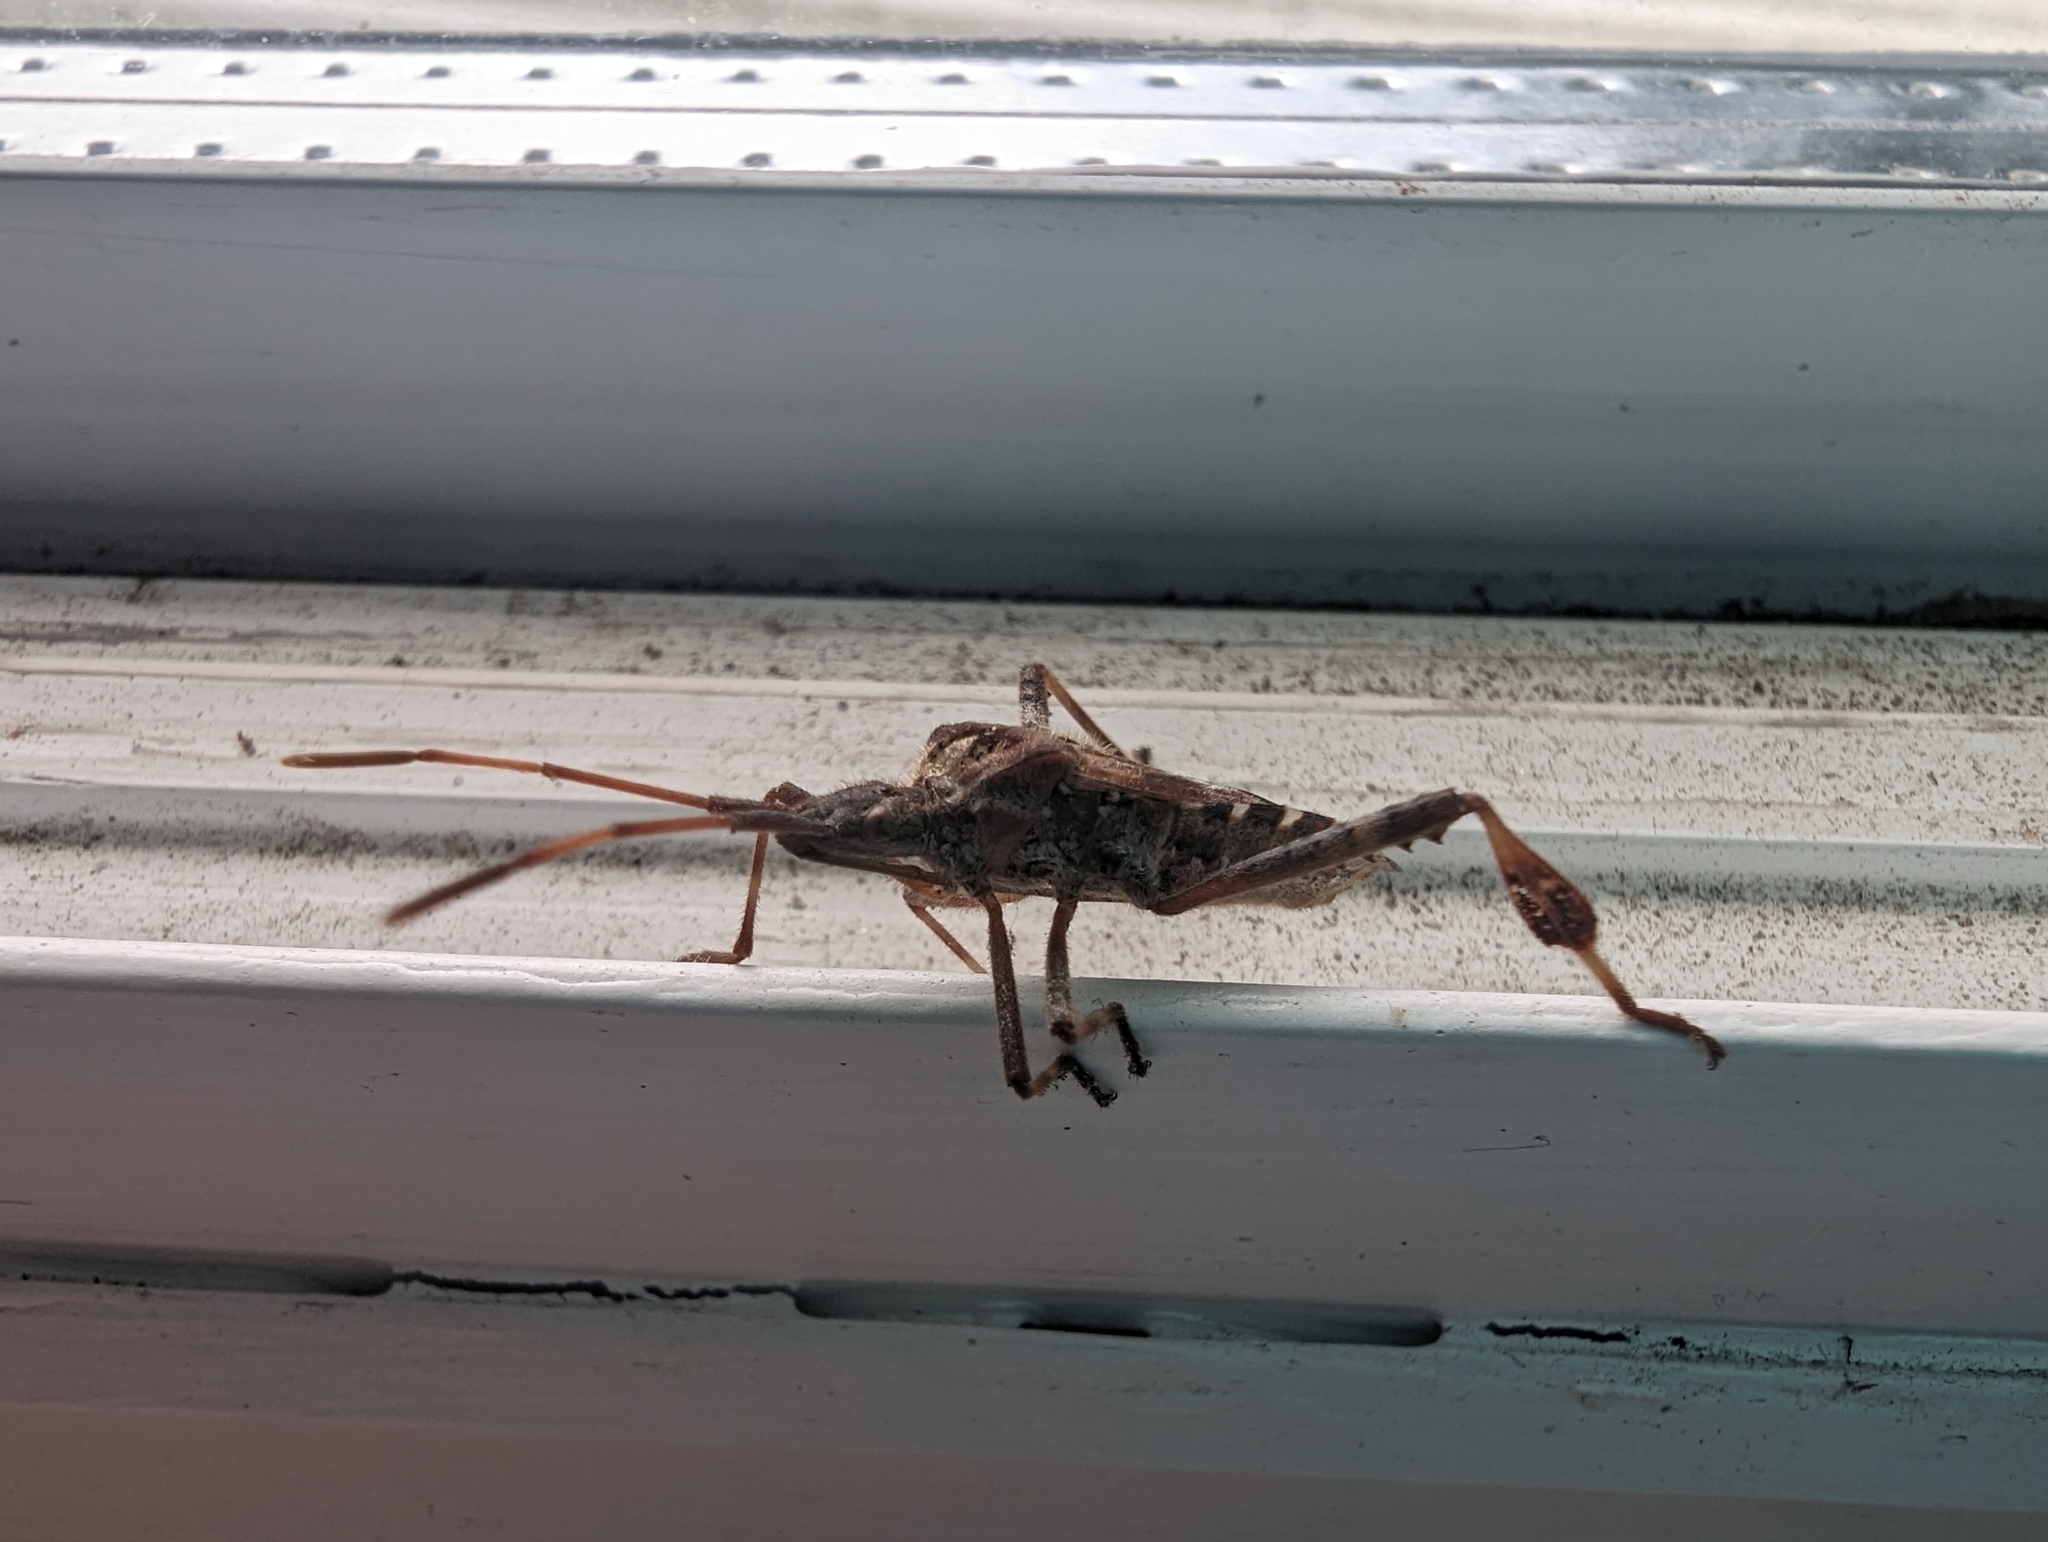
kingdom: Animalia
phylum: Arthropoda
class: Insecta
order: Hemiptera
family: Coreidae
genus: Leptoglossus
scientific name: Leptoglossus occidentalis
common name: Western conifer-seed bug
